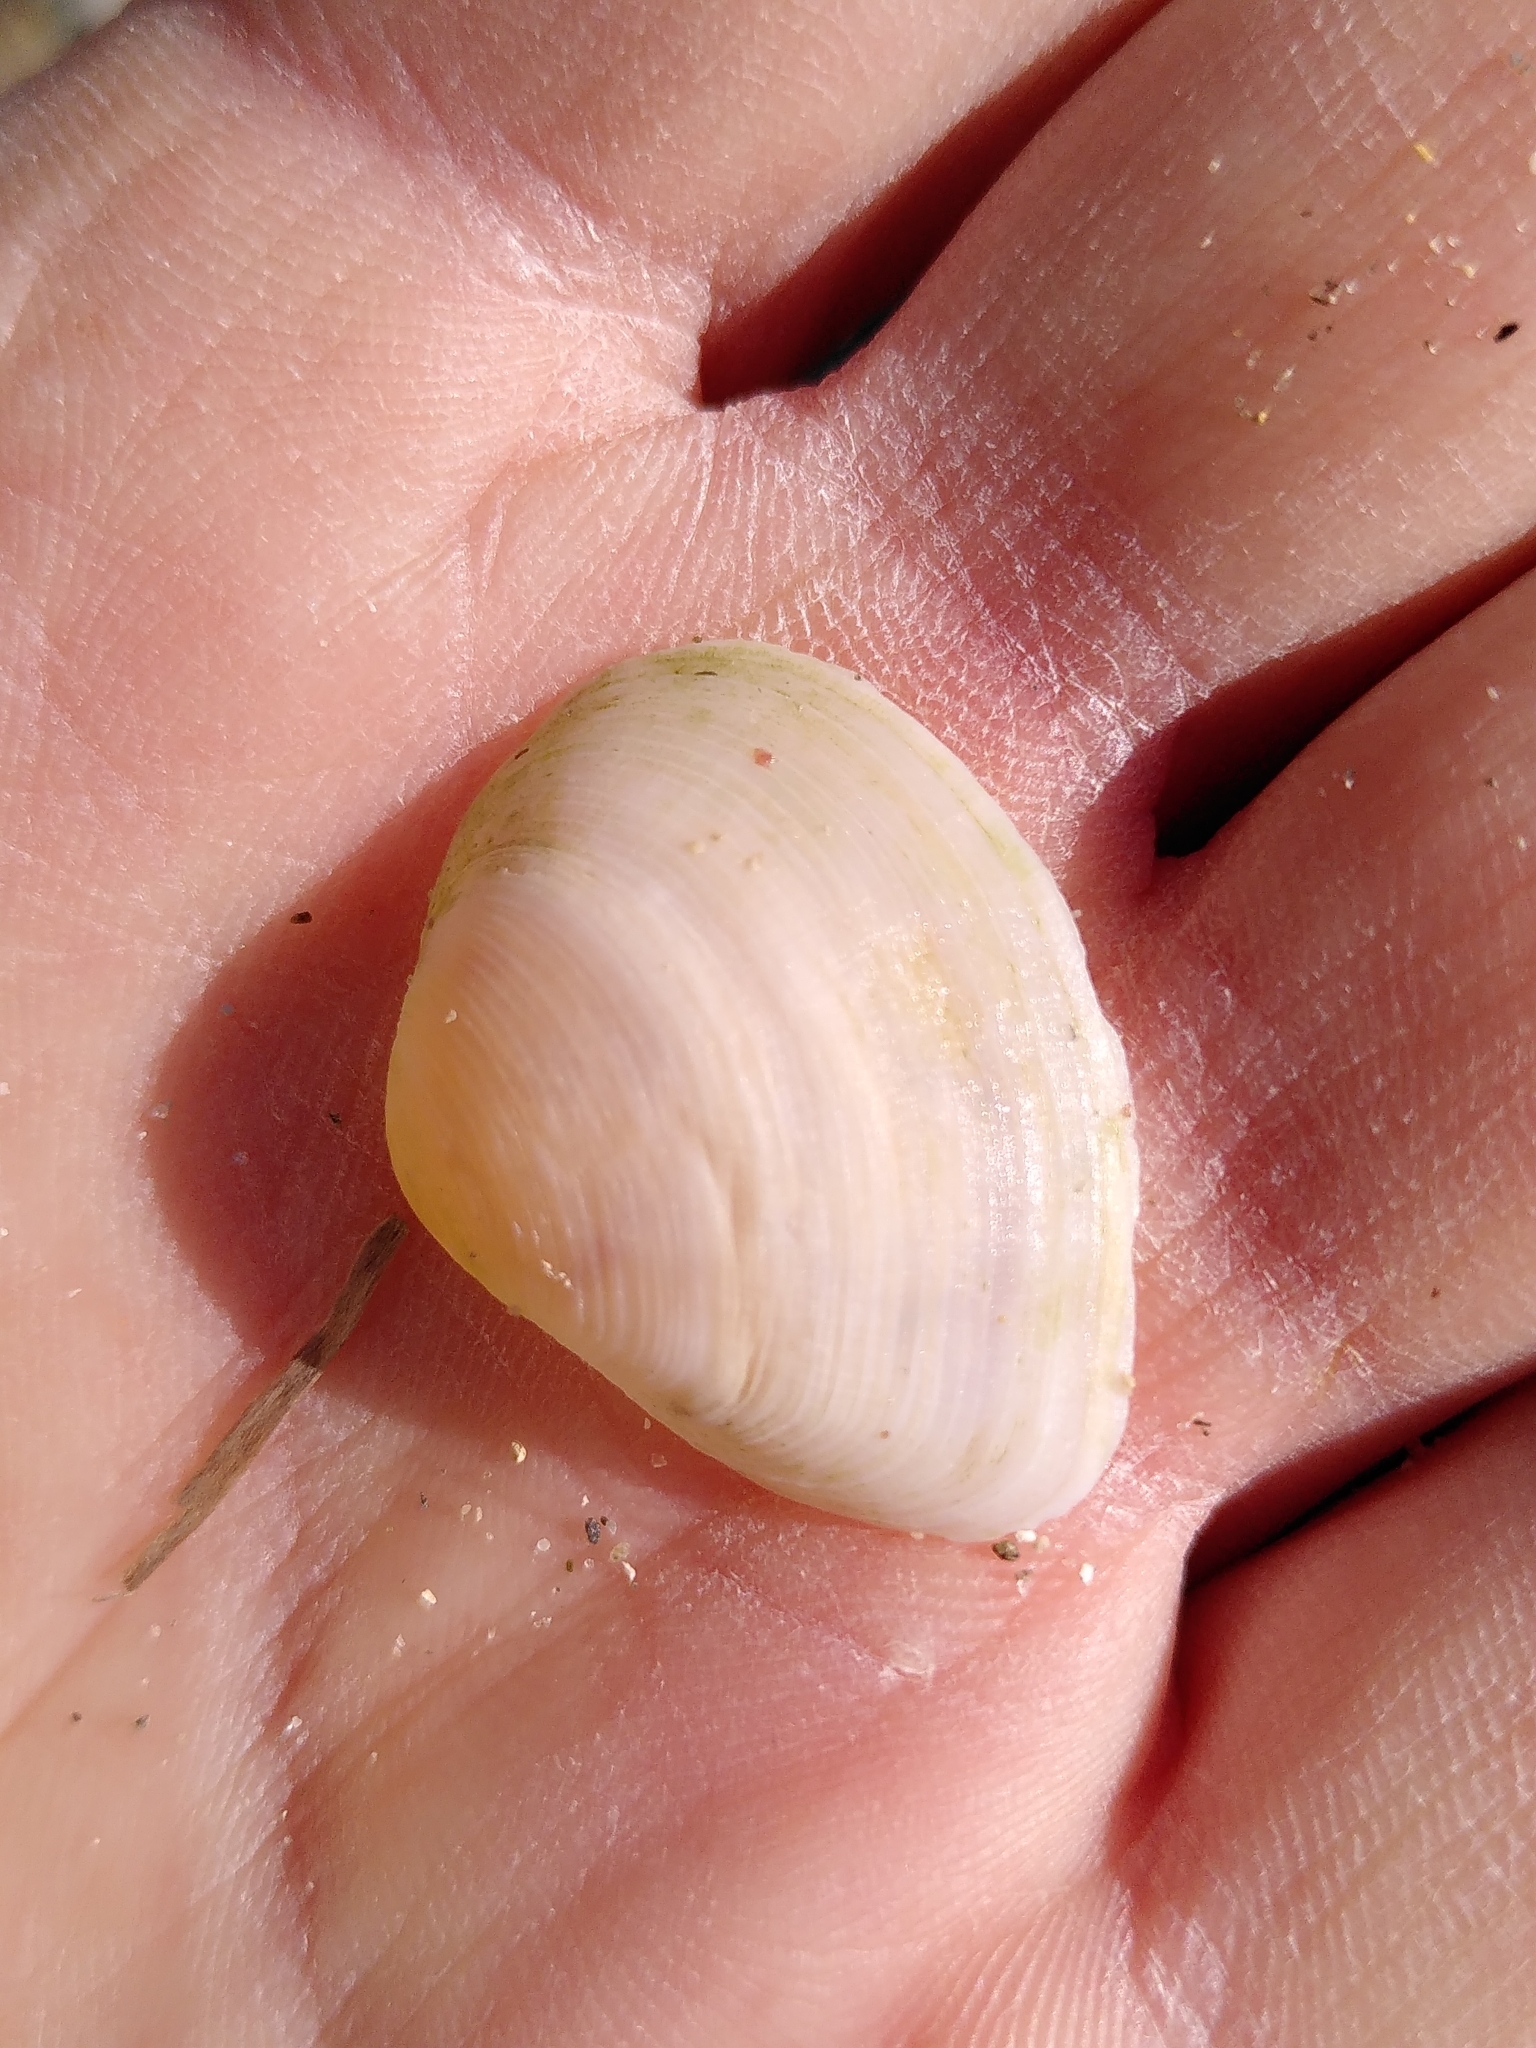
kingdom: Animalia
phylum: Mollusca
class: Bivalvia
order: Cardiida
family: Tellinidae
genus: Gastrana
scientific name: Gastrana fragilis
